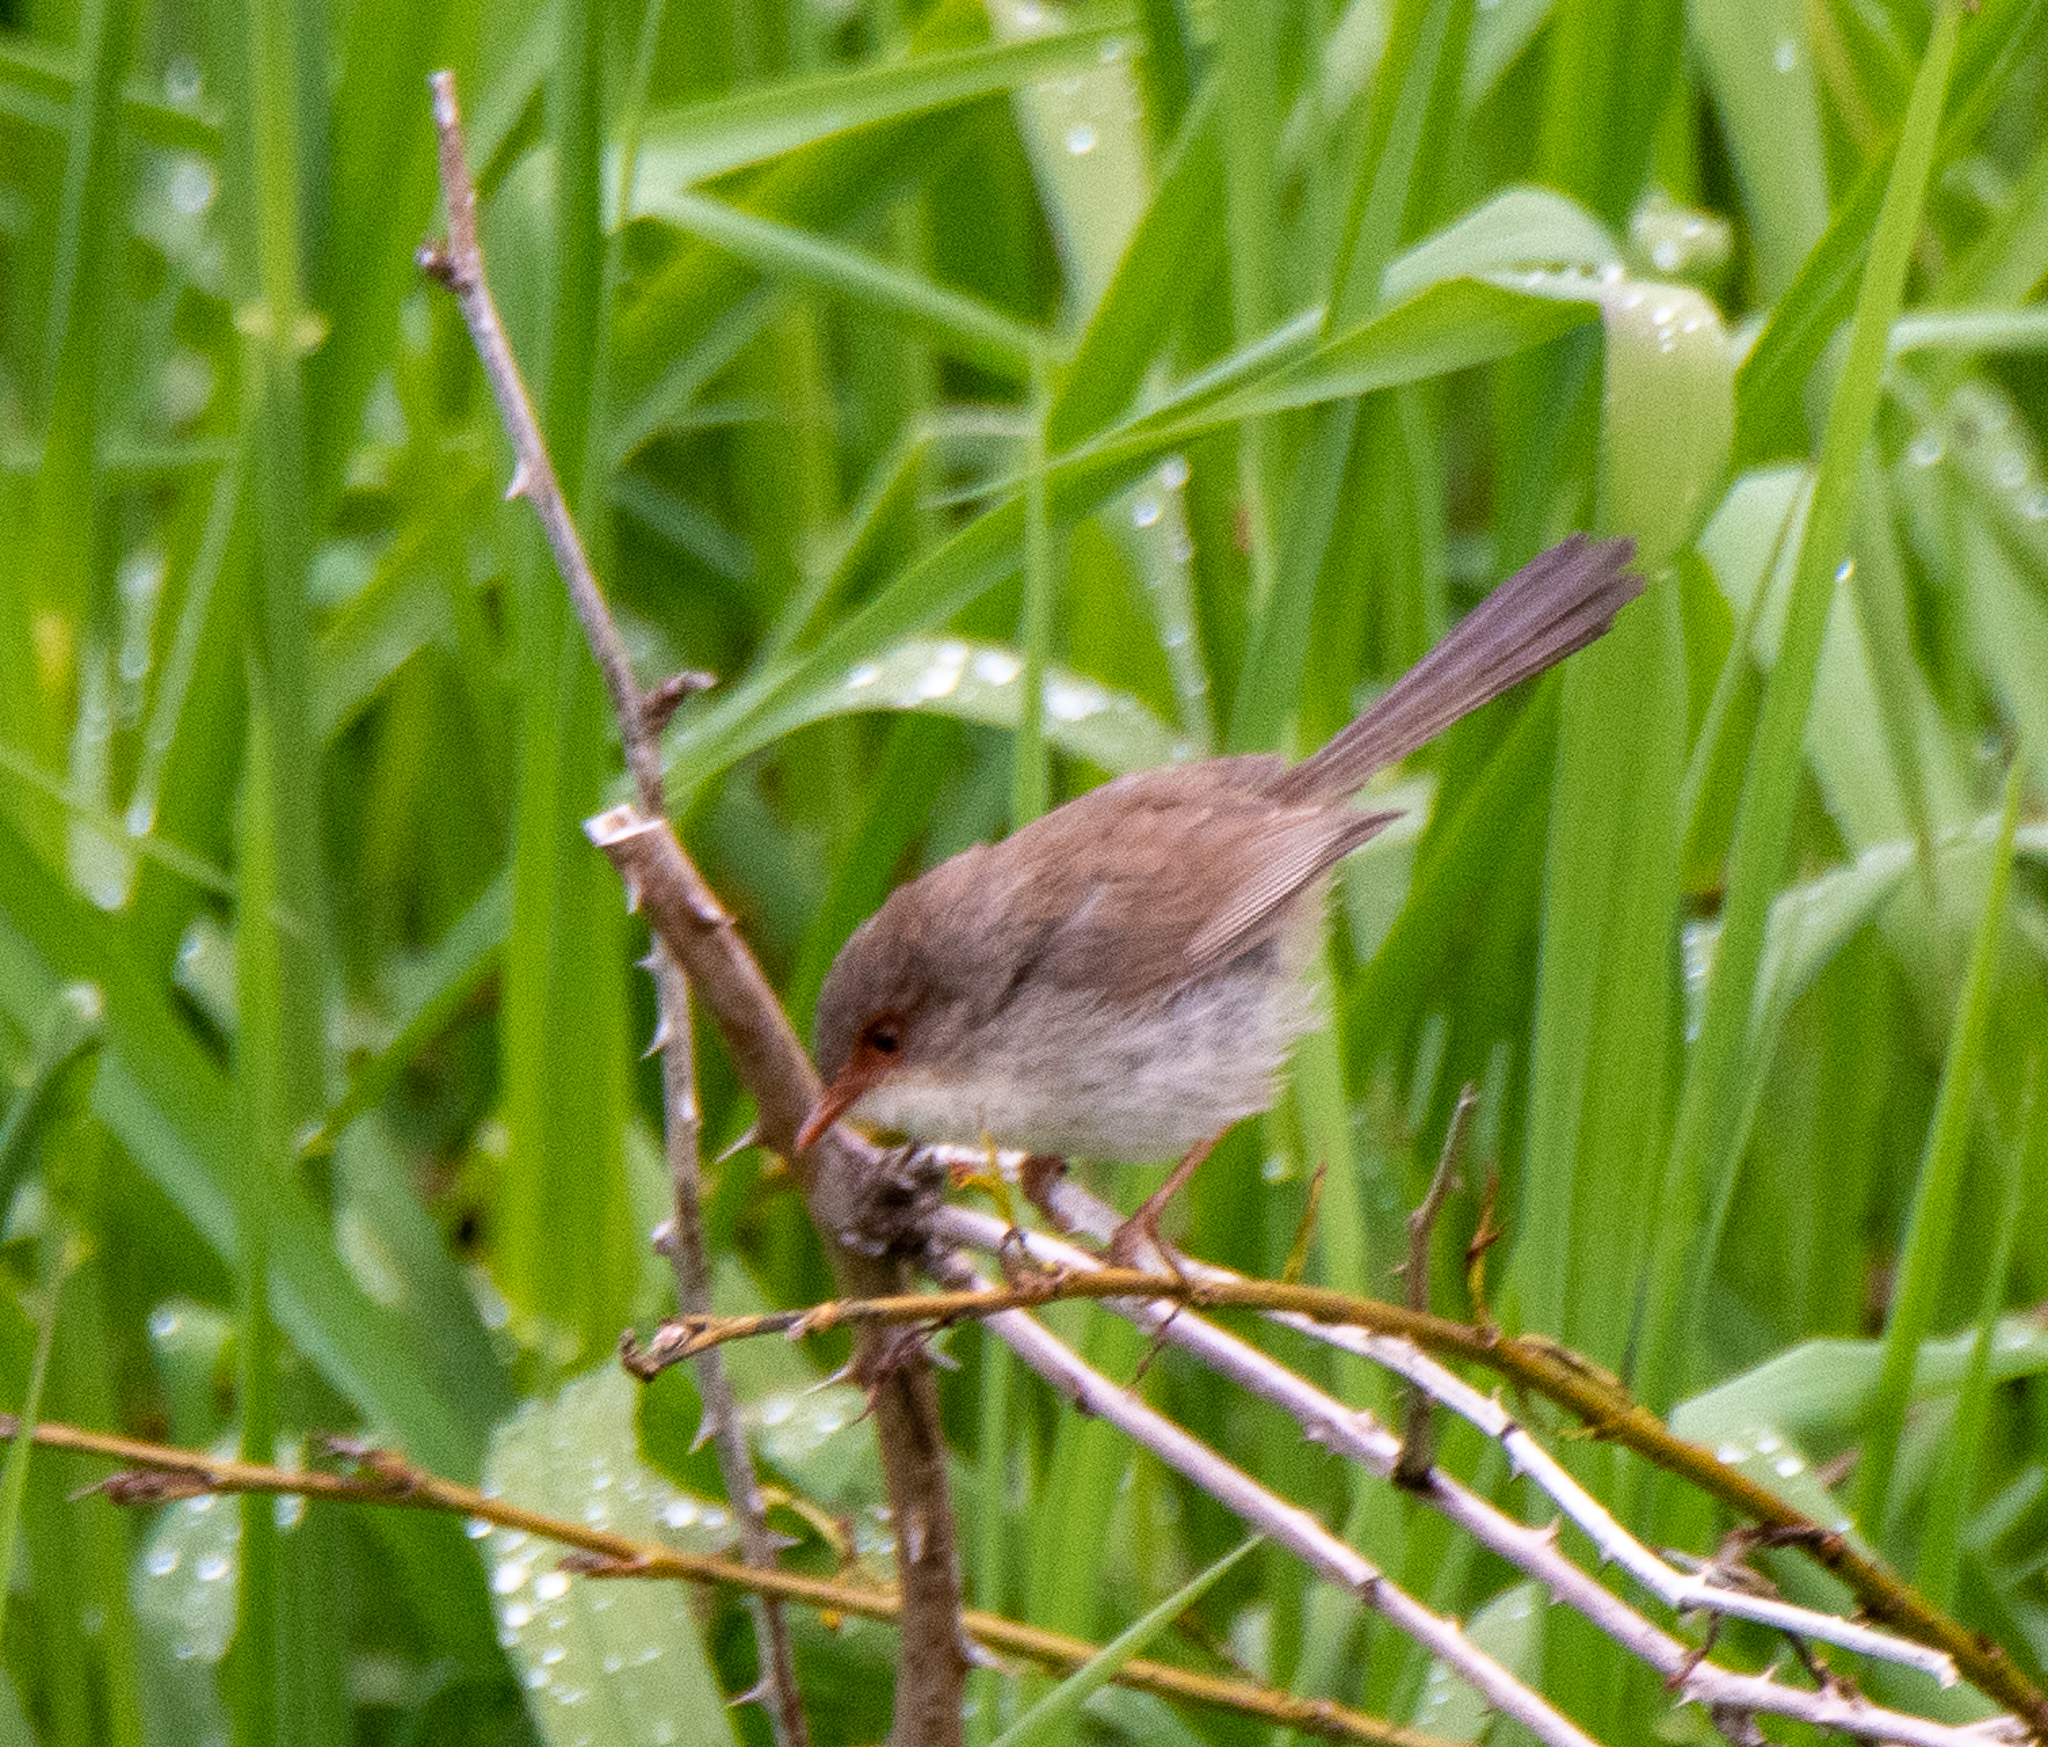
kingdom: Animalia
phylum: Chordata
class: Aves
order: Passeriformes
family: Maluridae
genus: Malurus
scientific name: Malurus cyaneus
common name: Superb fairywren
